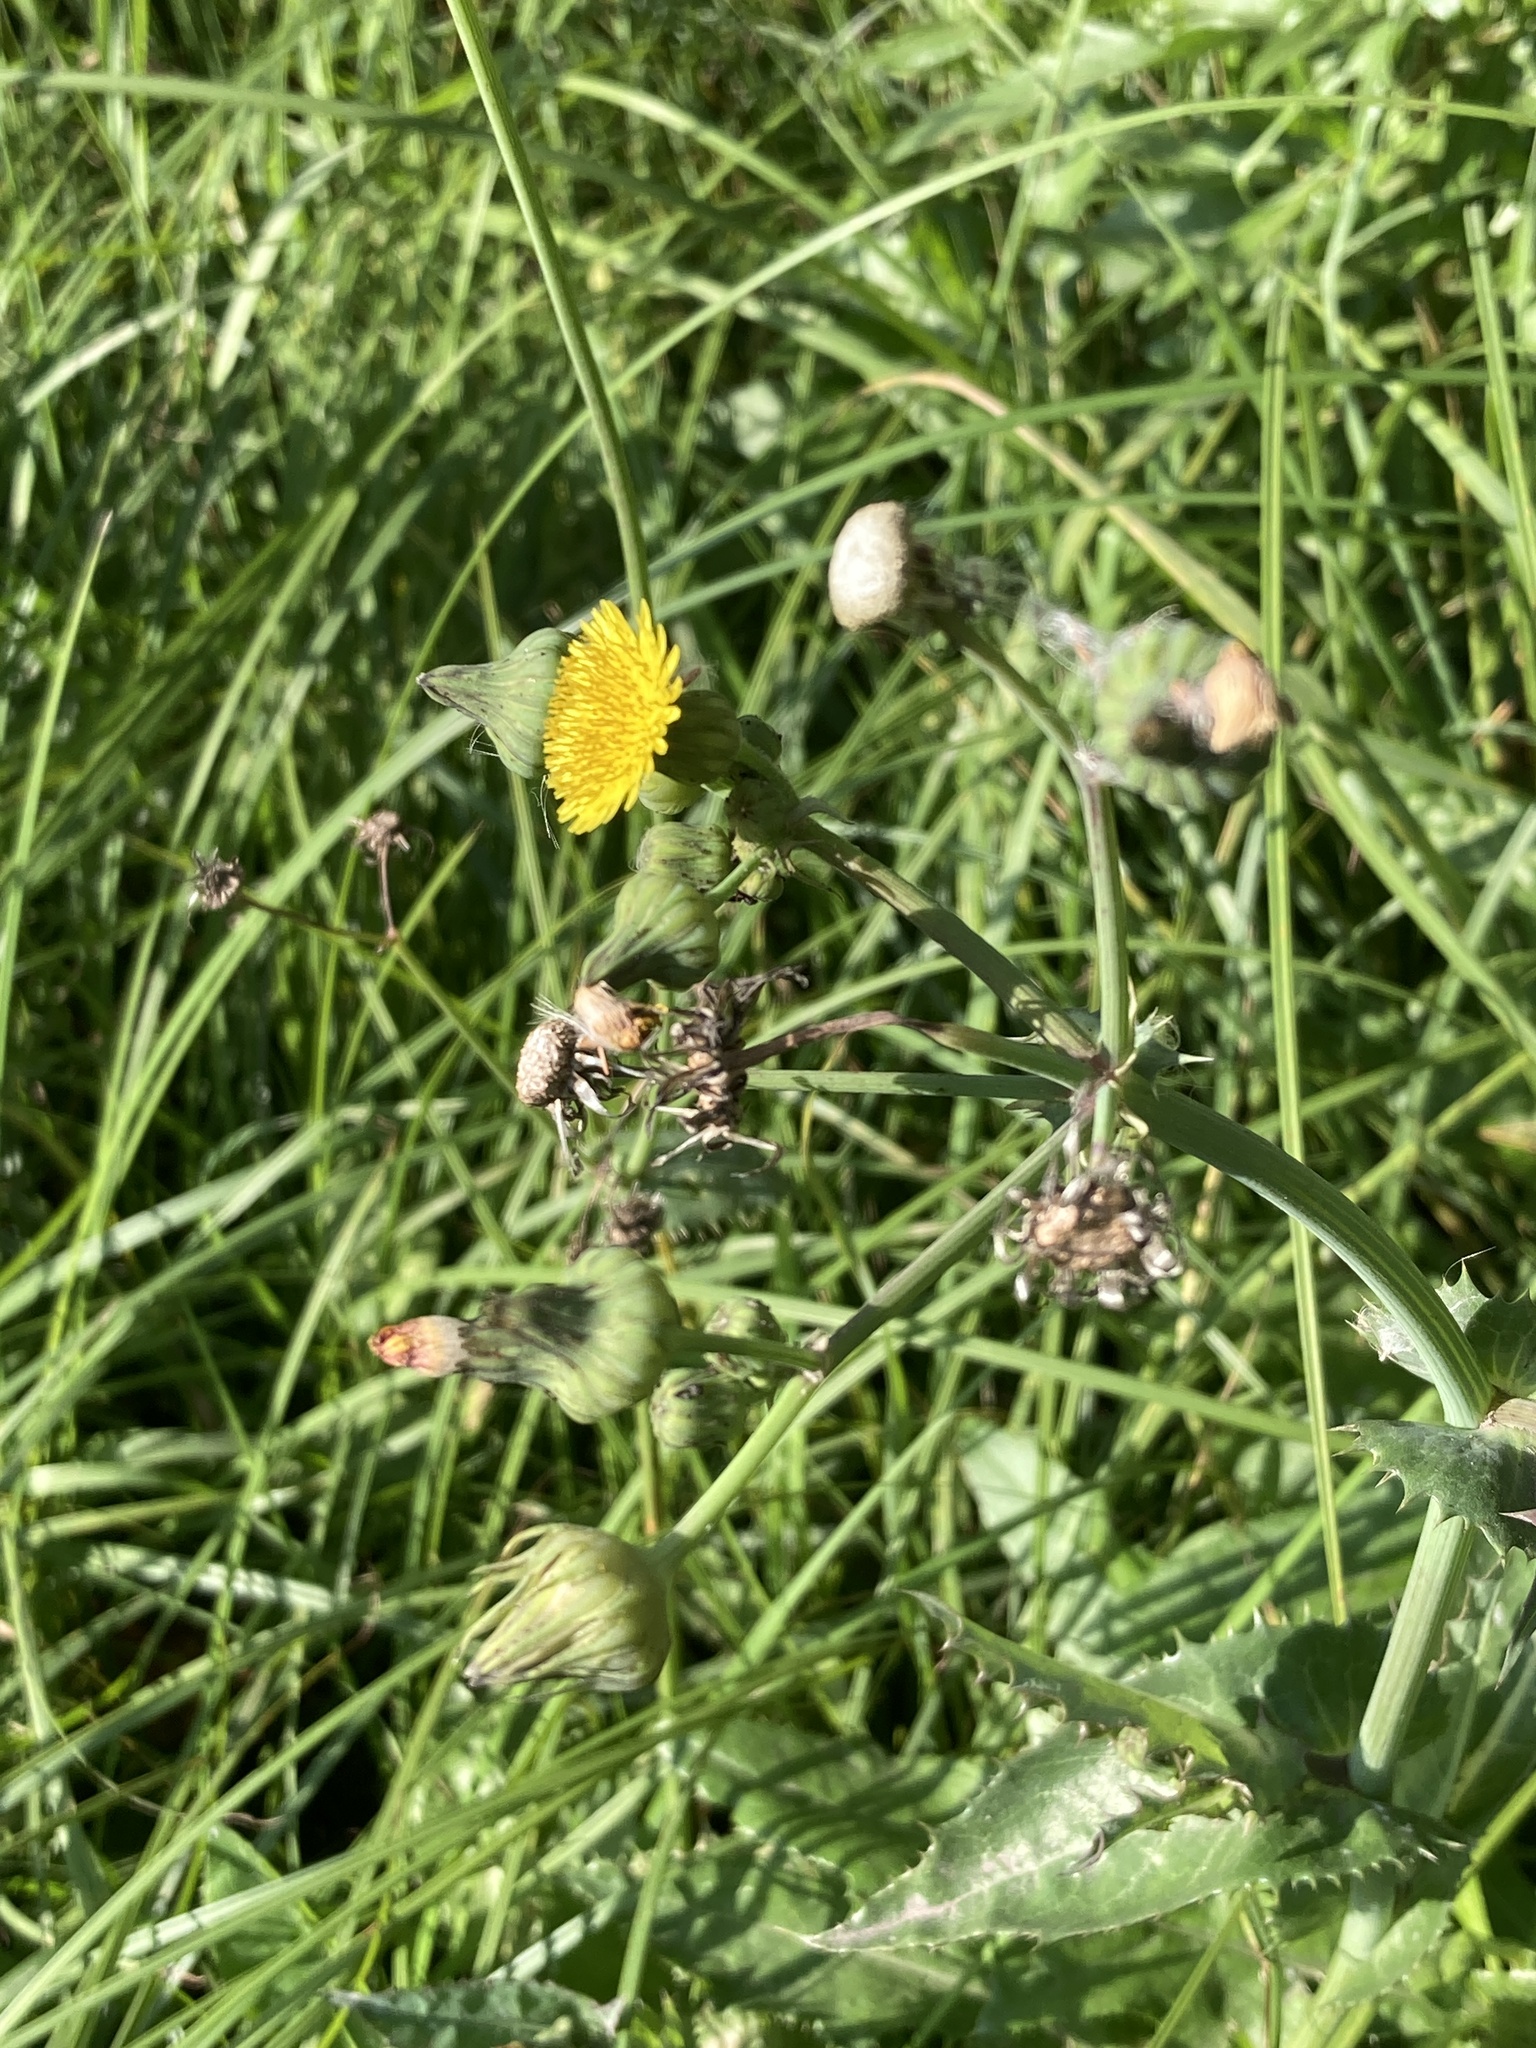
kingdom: Plantae
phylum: Tracheophyta
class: Magnoliopsida
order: Asterales
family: Asteraceae
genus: Sonchus
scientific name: Sonchus asper
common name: Prickly sow-thistle
